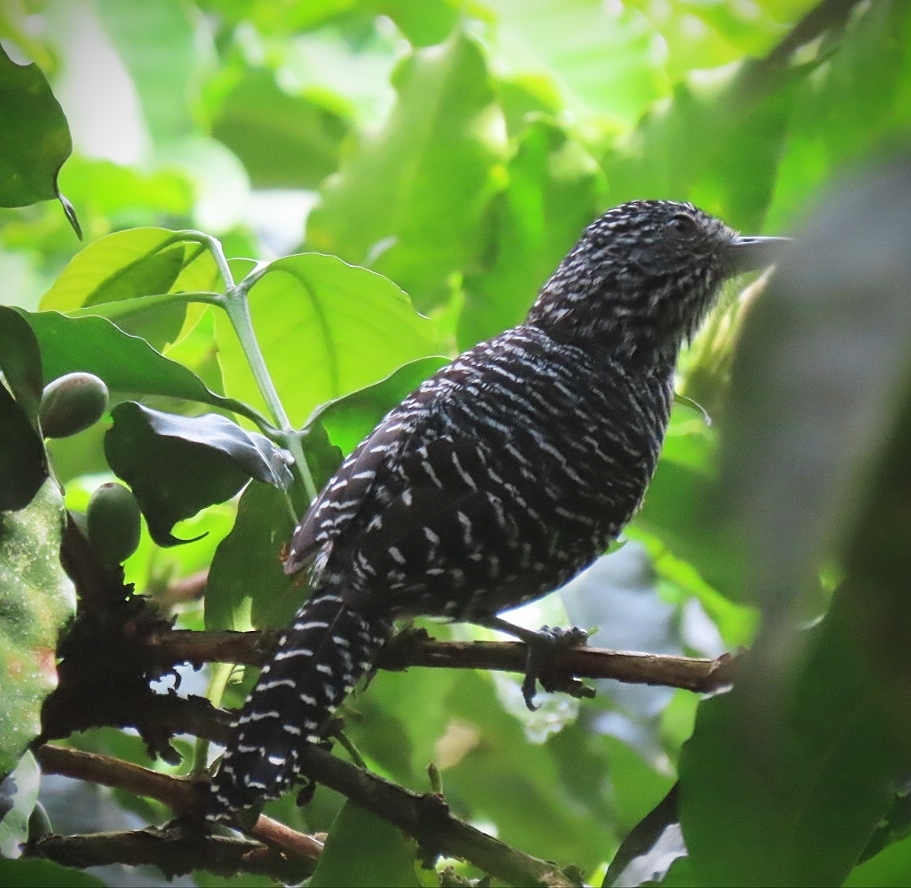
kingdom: Animalia
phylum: Chordata
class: Aves
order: Passeriformes
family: Thamnophilidae
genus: Thamnophilus
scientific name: Thamnophilus multistriatus
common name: Bar-crested antshrike
